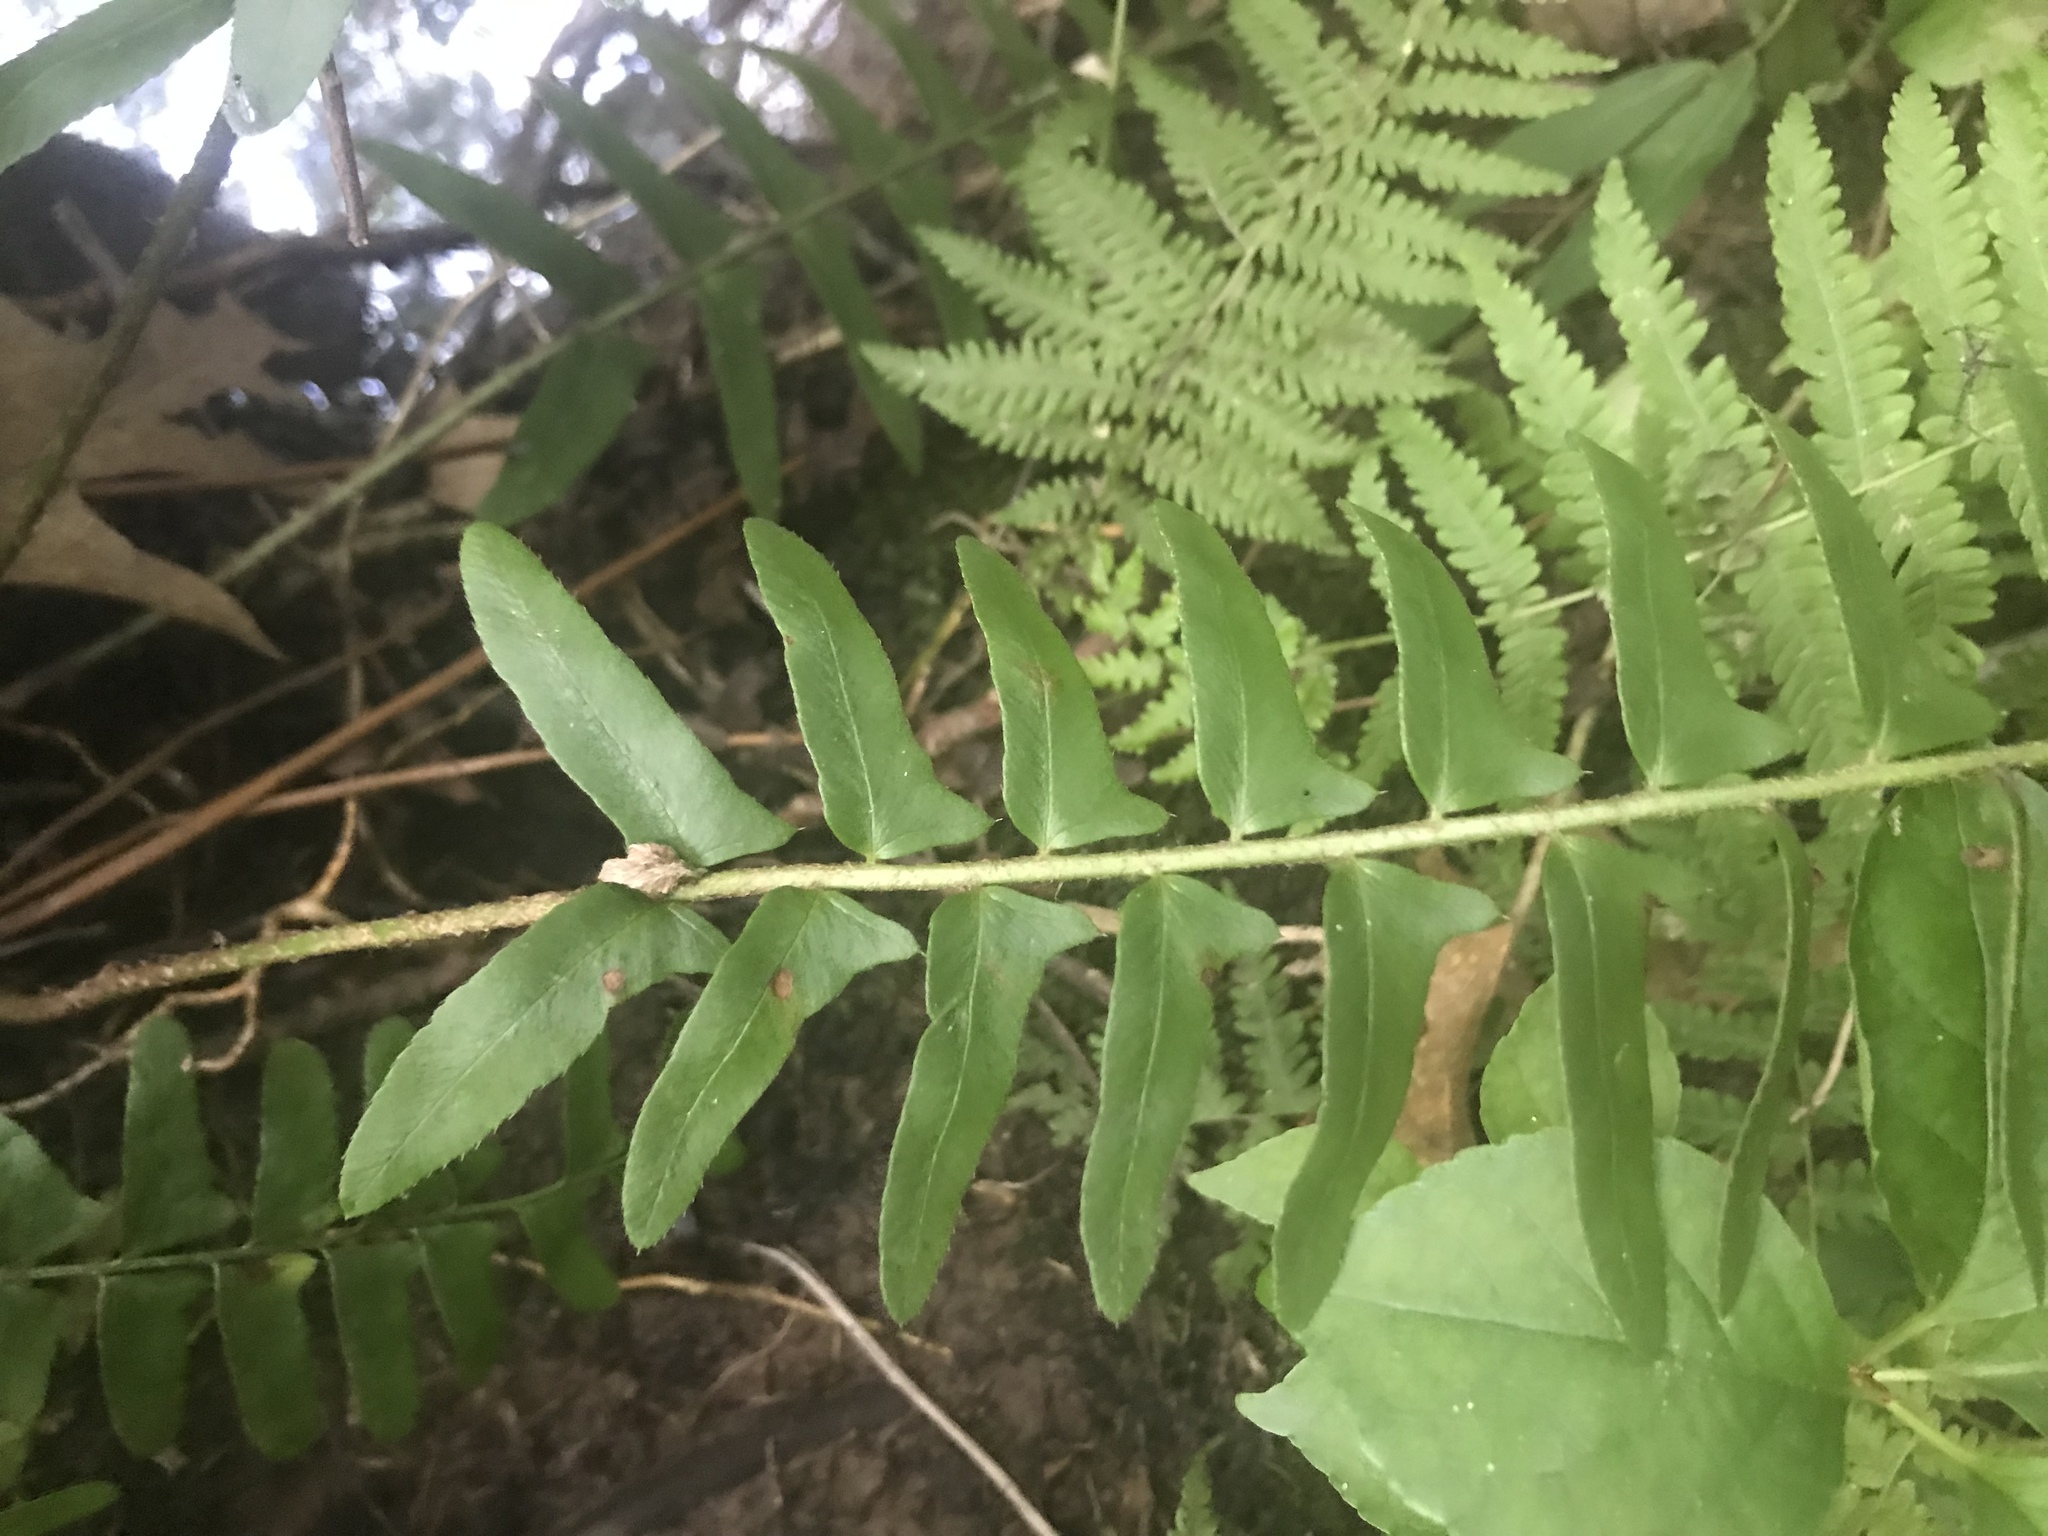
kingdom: Plantae
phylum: Tracheophyta
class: Polypodiopsida
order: Polypodiales
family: Dryopteridaceae
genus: Polystichum
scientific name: Polystichum acrostichoides
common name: Christmas fern
